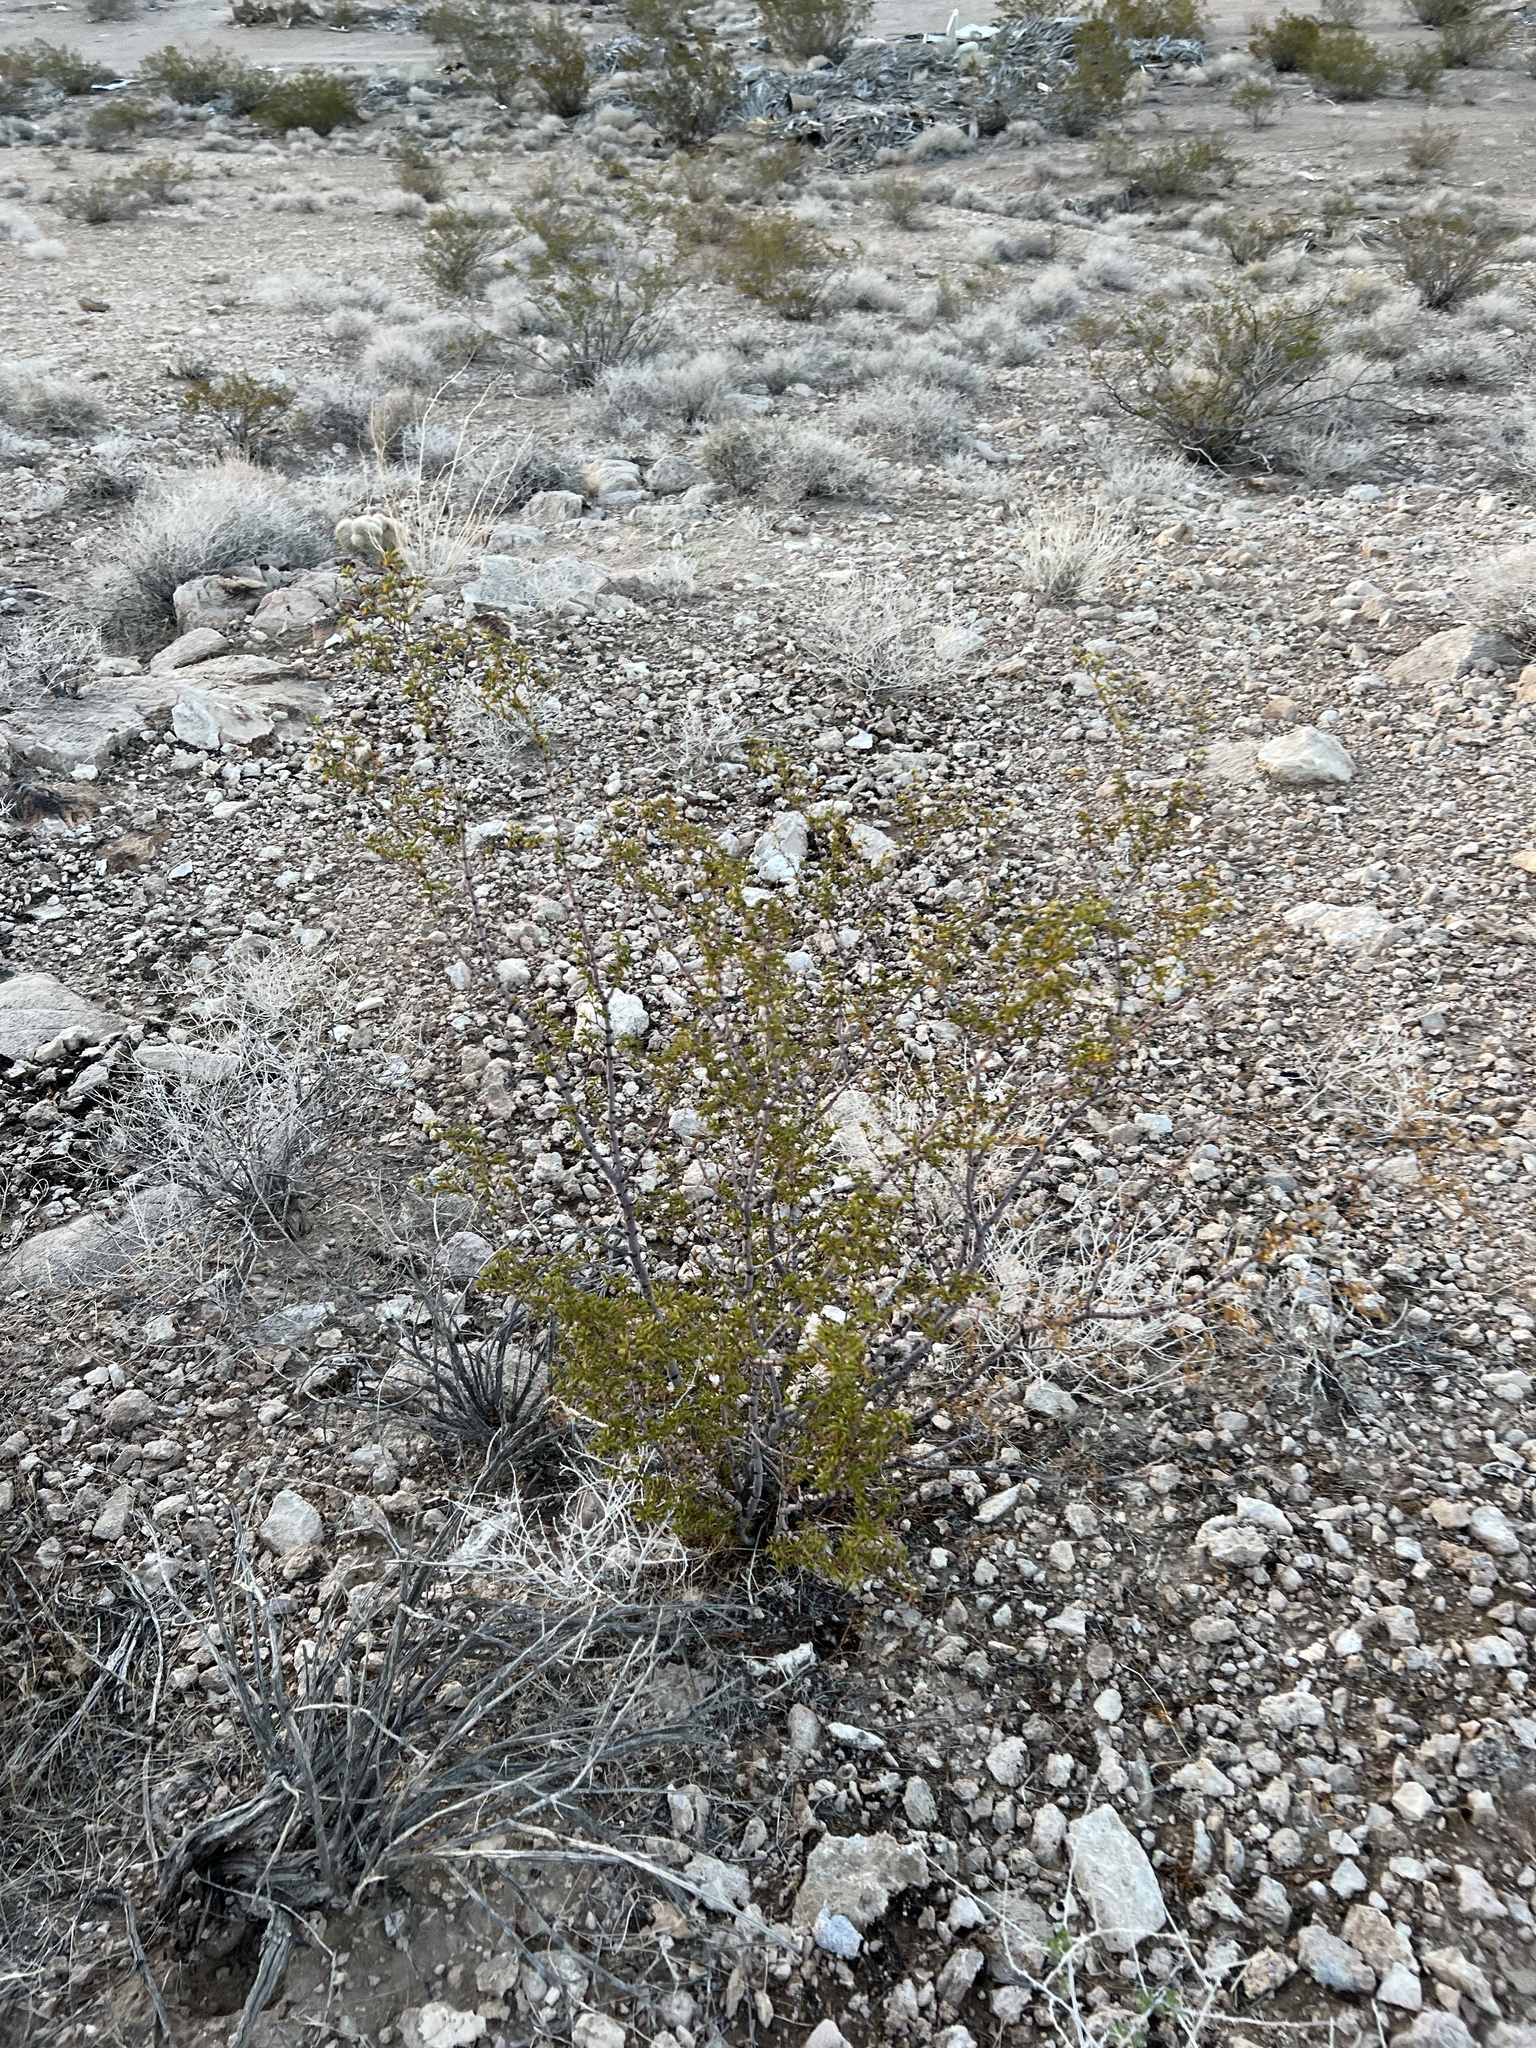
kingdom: Plantae
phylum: Tracheophyta
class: Magnoliopsida
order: Zygophyllales
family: Zygophyllaceae
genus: Larrea
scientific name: Larrea tridentata
